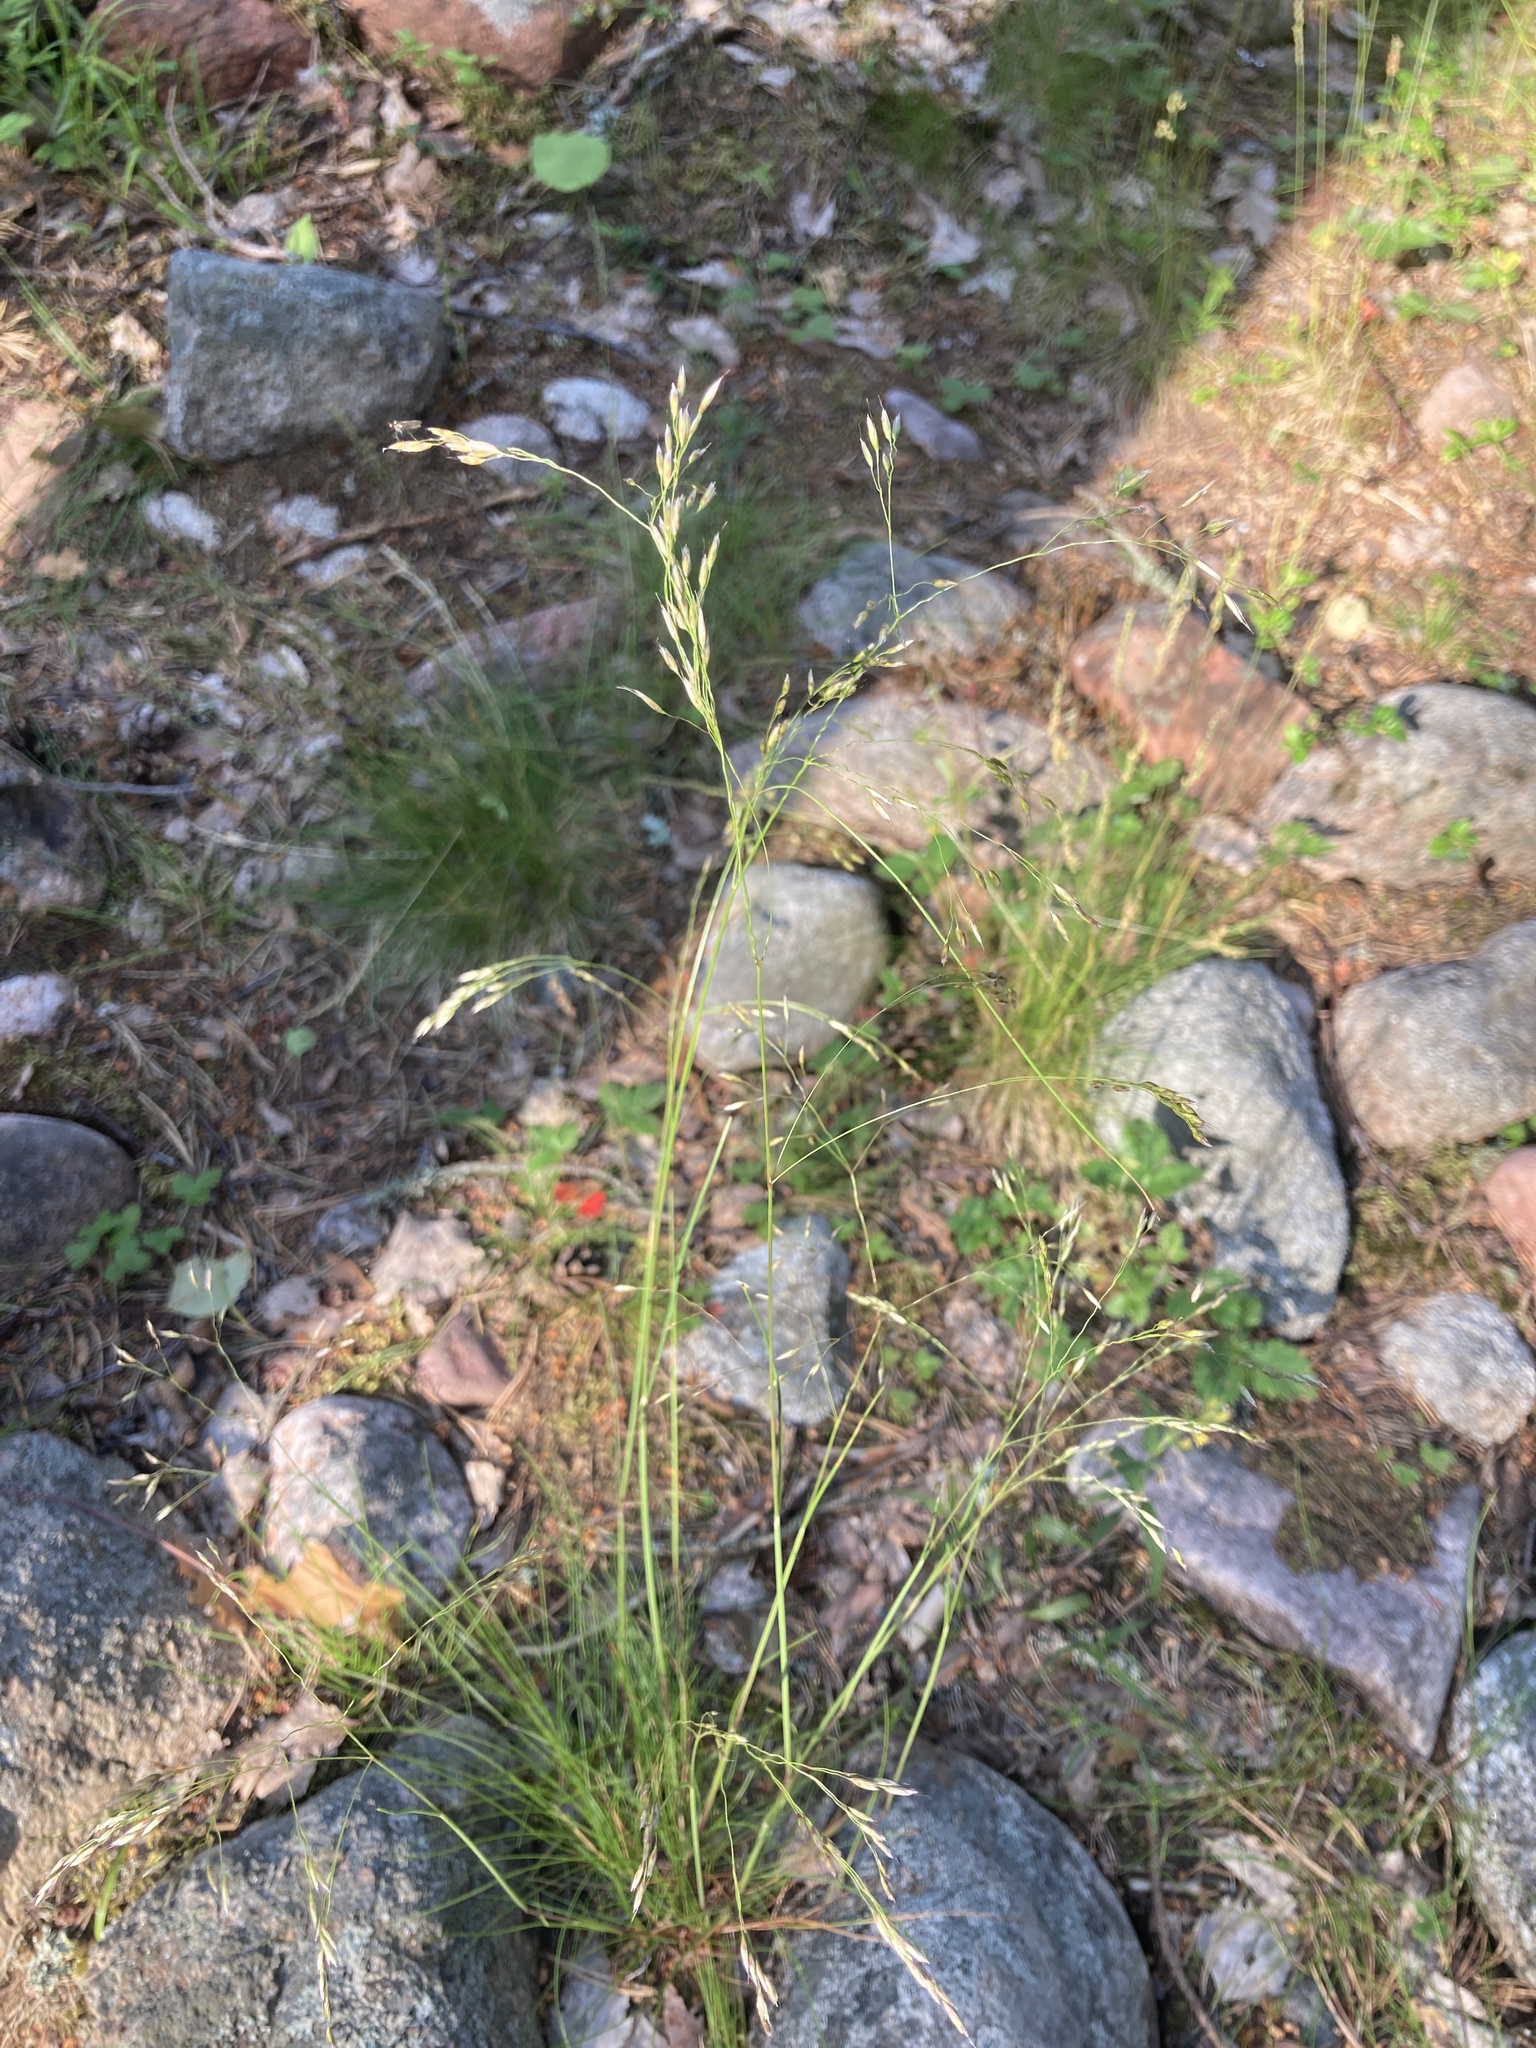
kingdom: Plantae
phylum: Tracheophyta
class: Liliopsida
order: Poales
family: Poaceae
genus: Avenella
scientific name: Avenella flexuosa
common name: Wavy hairgrass
